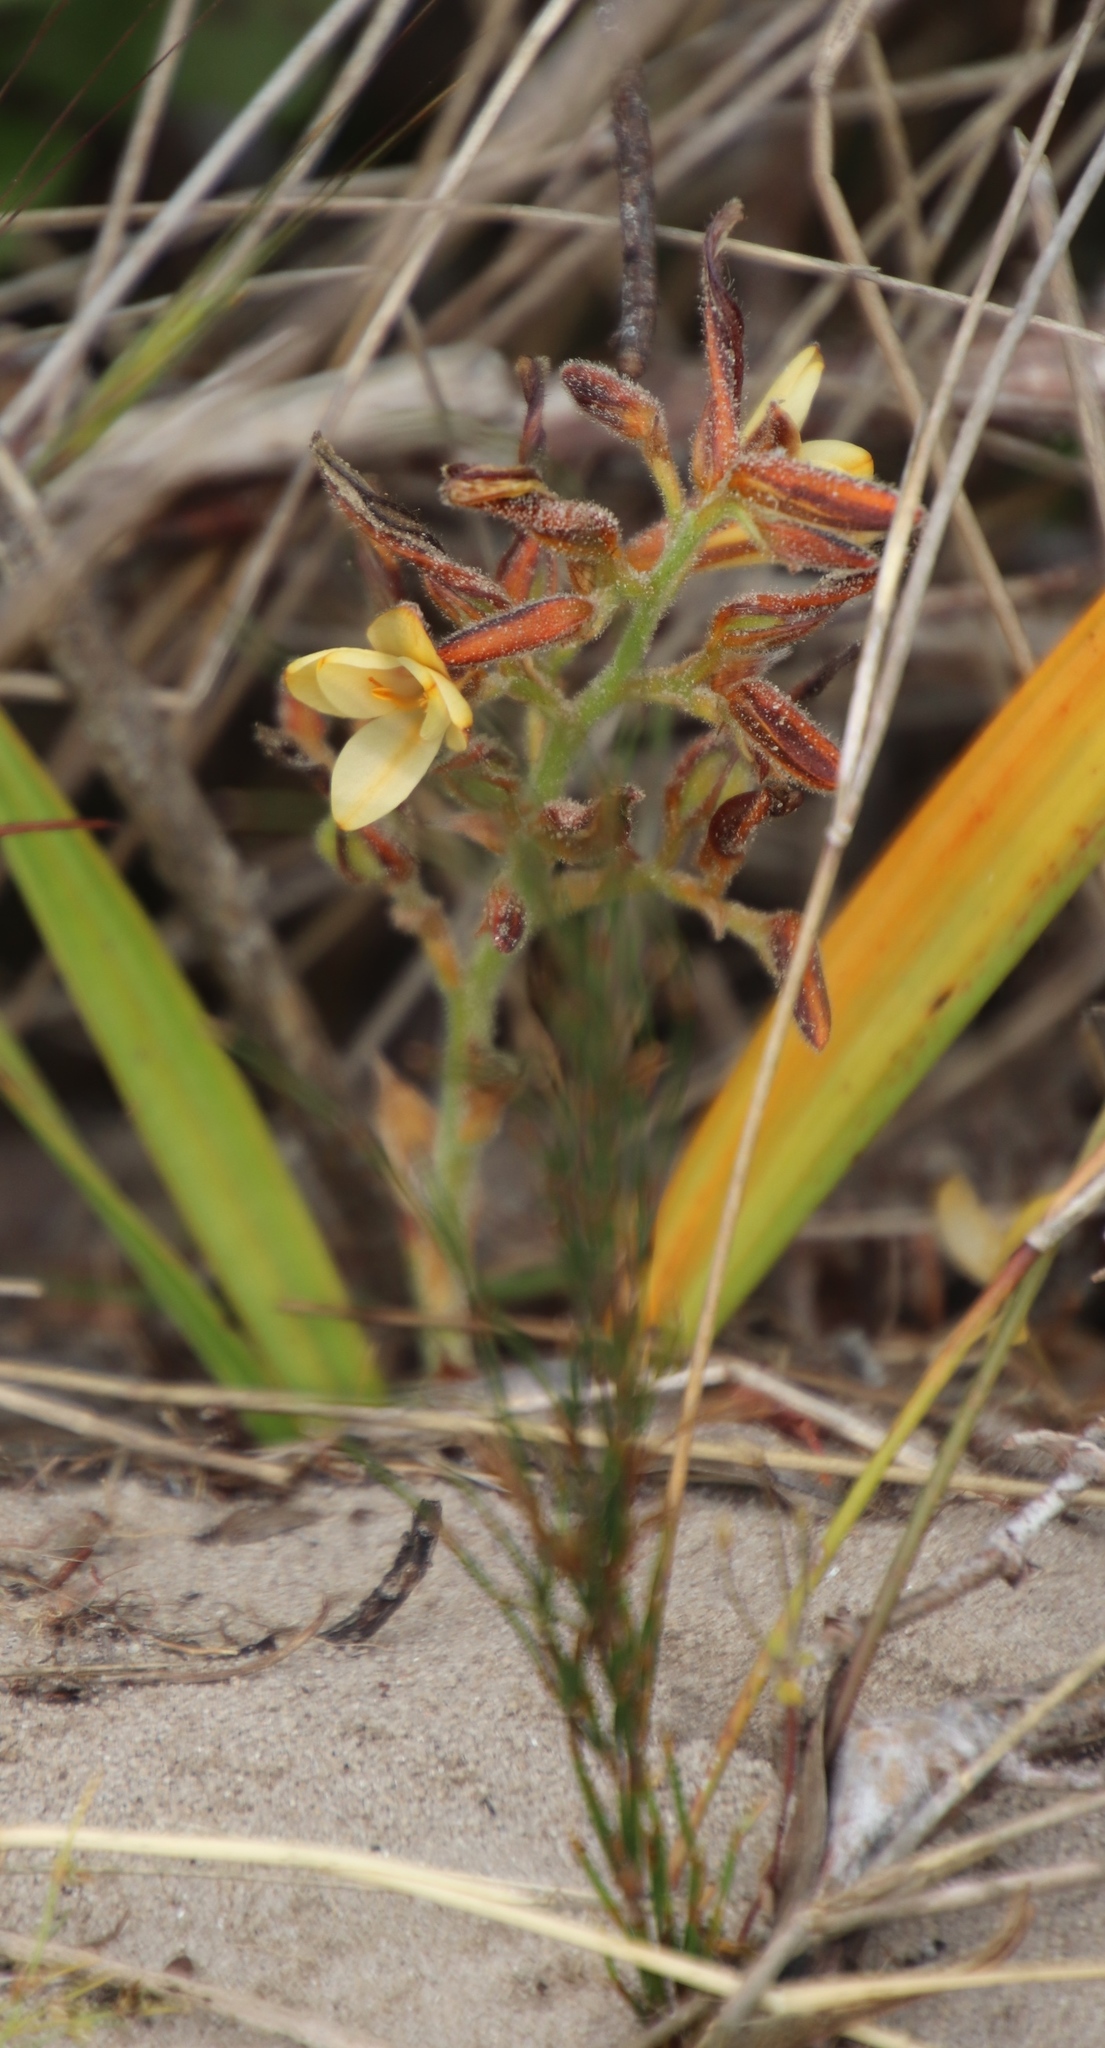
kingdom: Plantae
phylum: Tracheophyta
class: Liliopsida
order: Commelinales
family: Haemodoraceae
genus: Wachendorfia
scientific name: Wachendorfia paniculata
